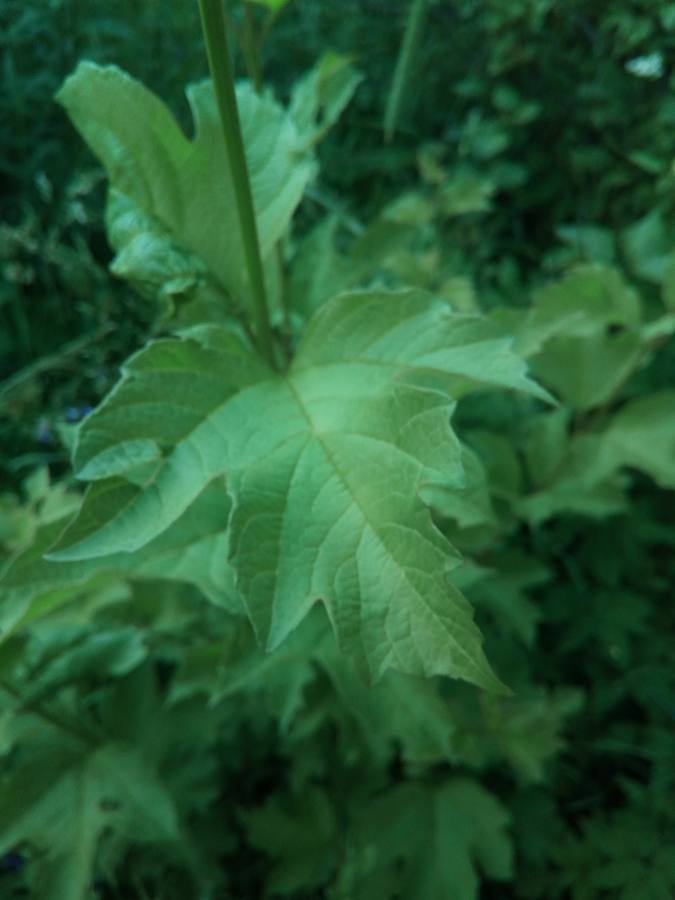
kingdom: Plantae
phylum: Tracheophyta
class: Magnoliopsida
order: Dipsacales
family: Viburnaceae
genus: Viburnum
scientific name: Viburnum opulus
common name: Guelder-rose
